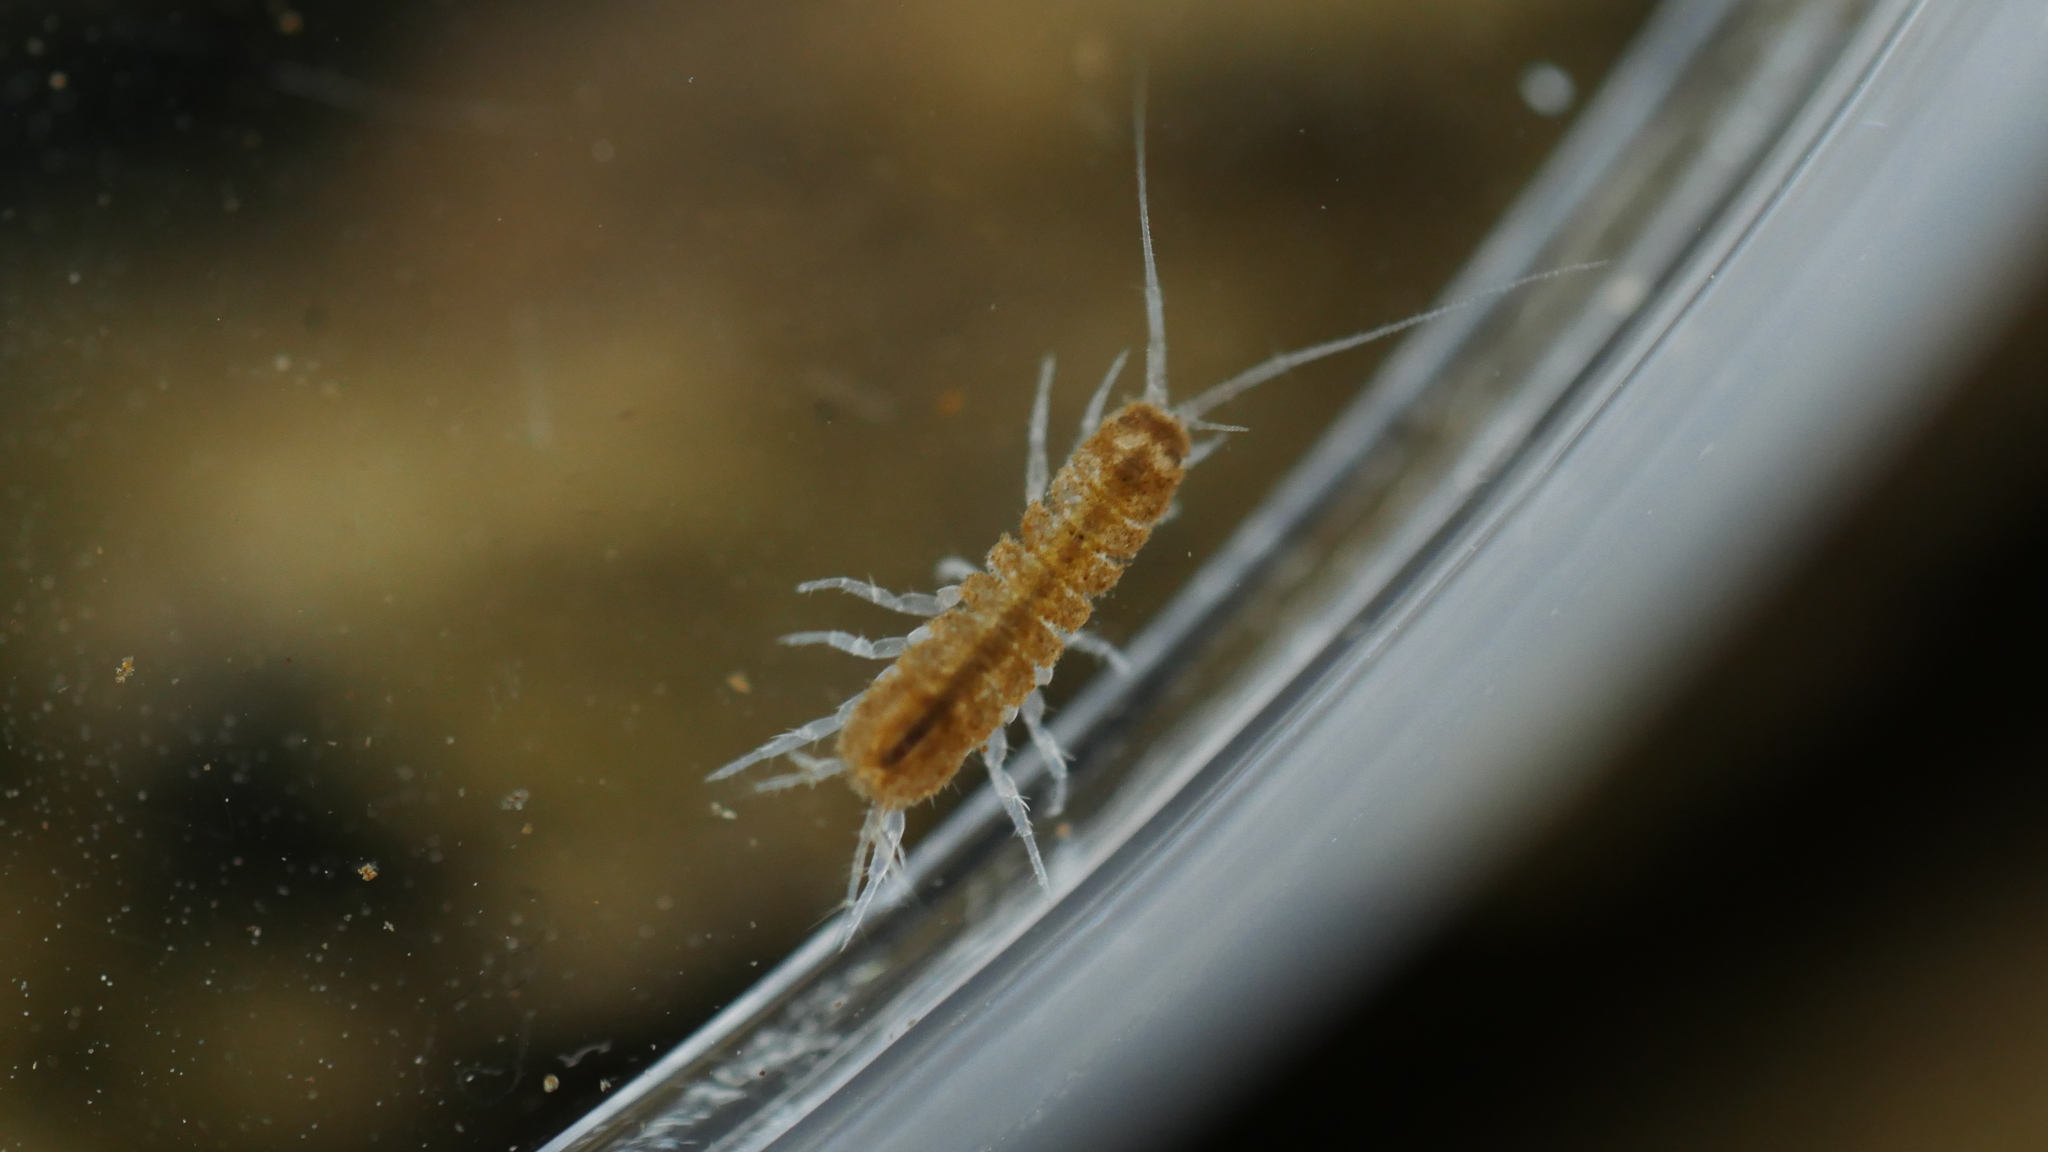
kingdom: Animalia
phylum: Arthropoda
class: Malacostraca
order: Isopoda
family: Asellidae
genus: Caecidotea
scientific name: Caecidotea
